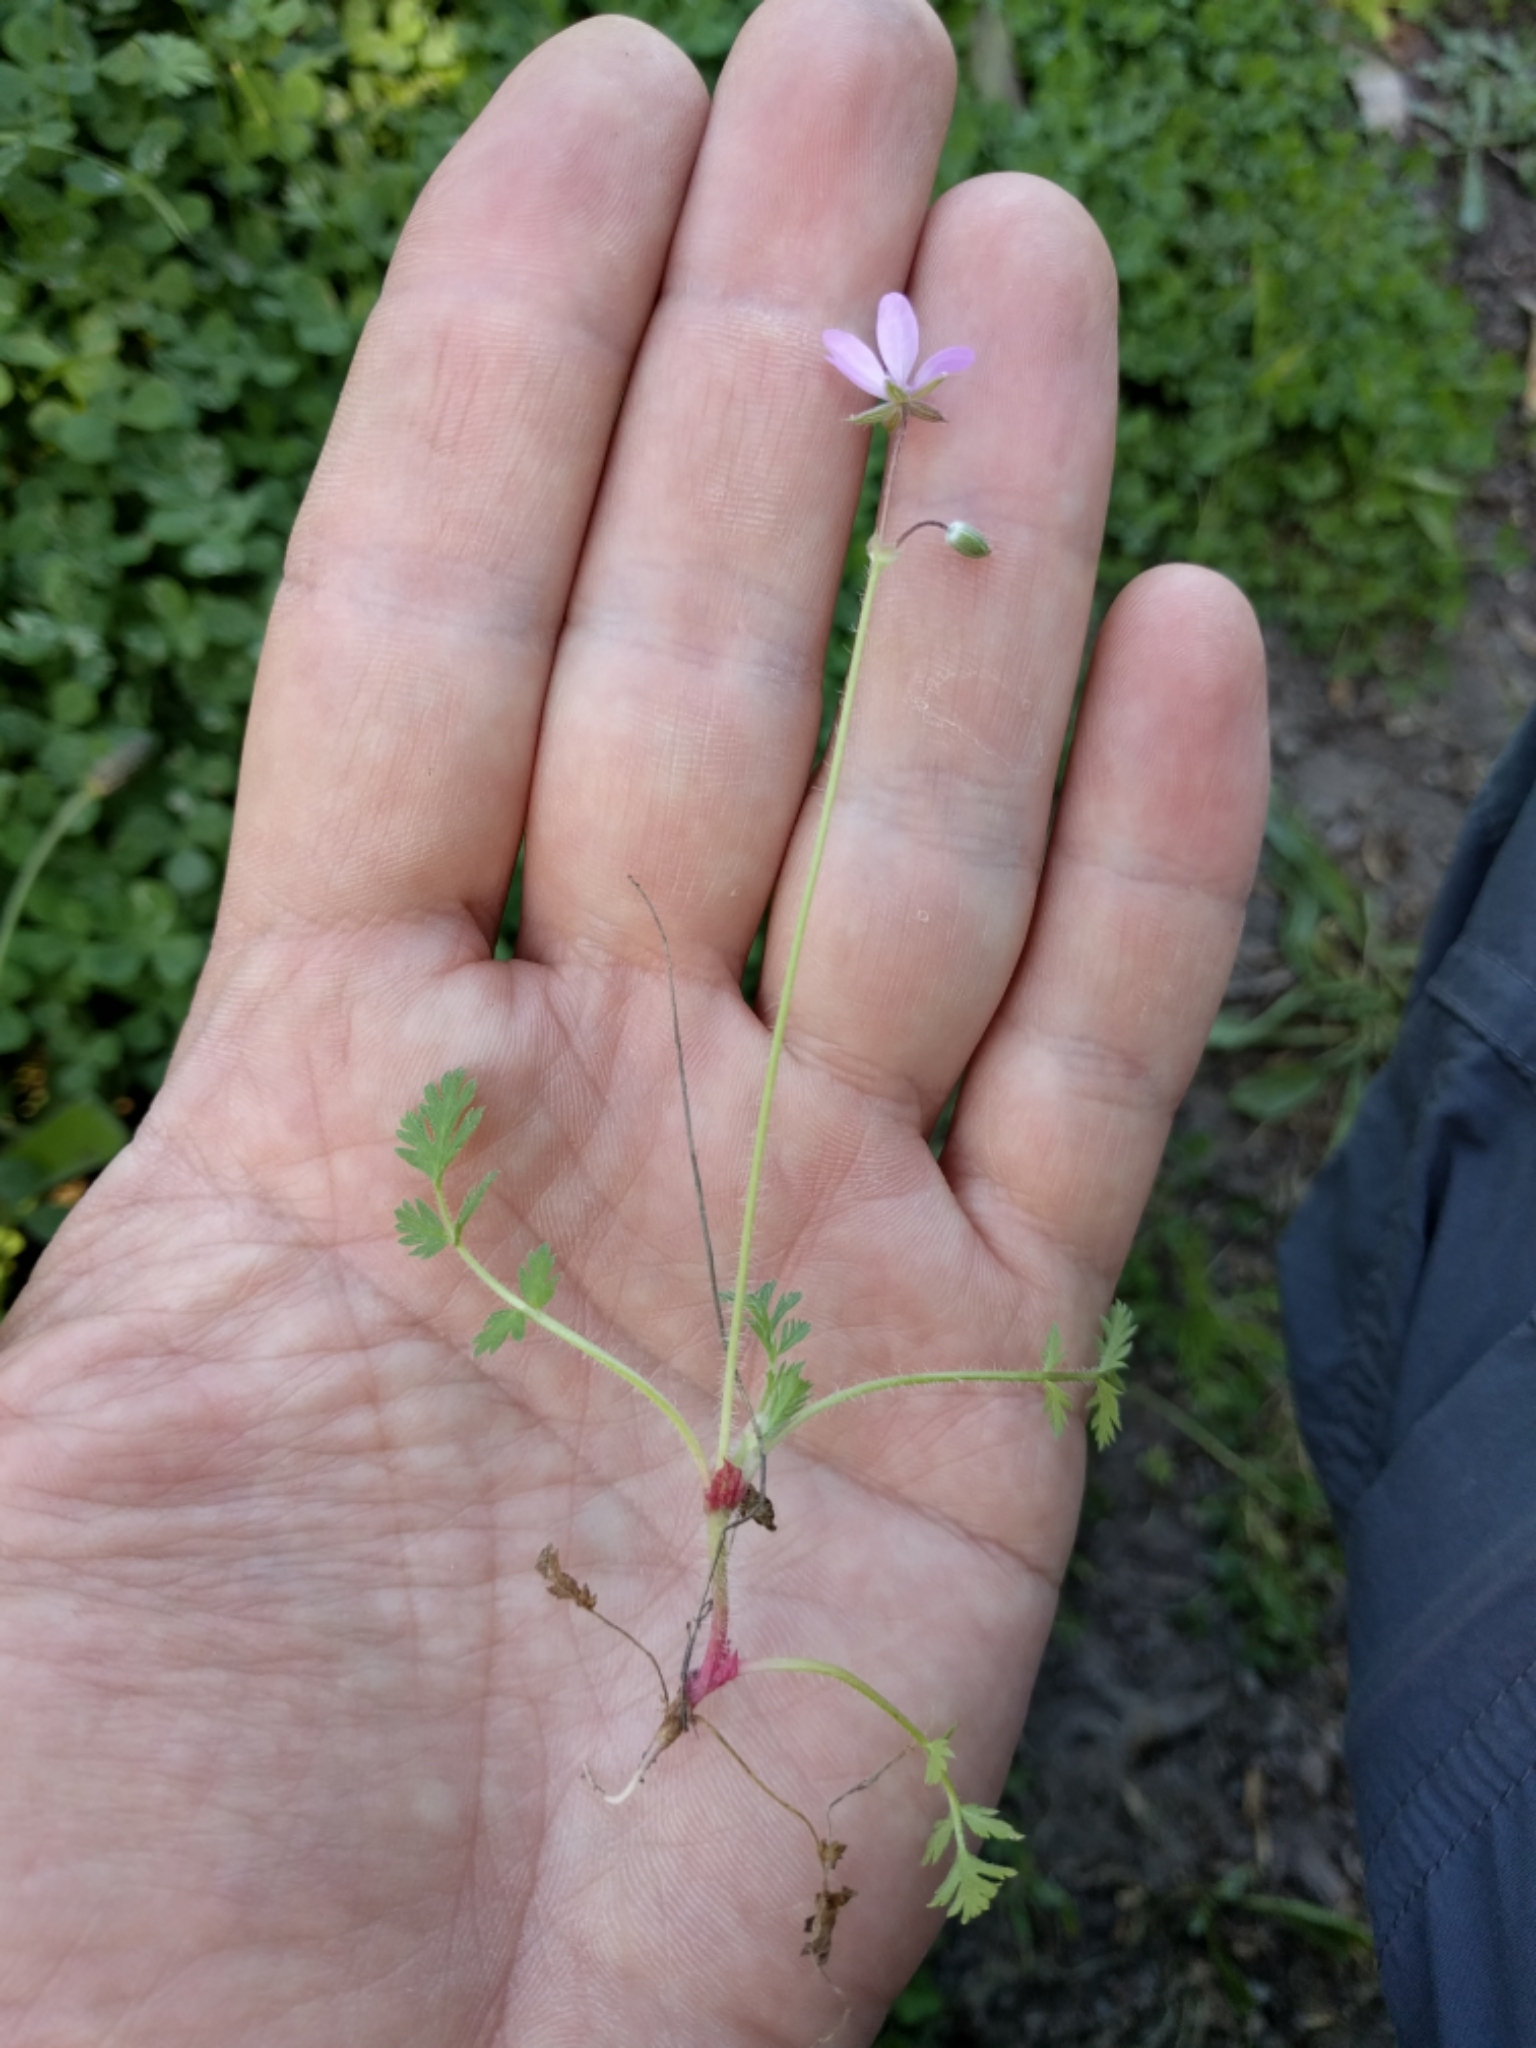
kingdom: Plantae
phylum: Tracheophyta
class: Magnoliopsida
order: Geraniales
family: Geraniaceae
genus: Erodium
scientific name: Erodium cicutarium
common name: Common stork's-bill
